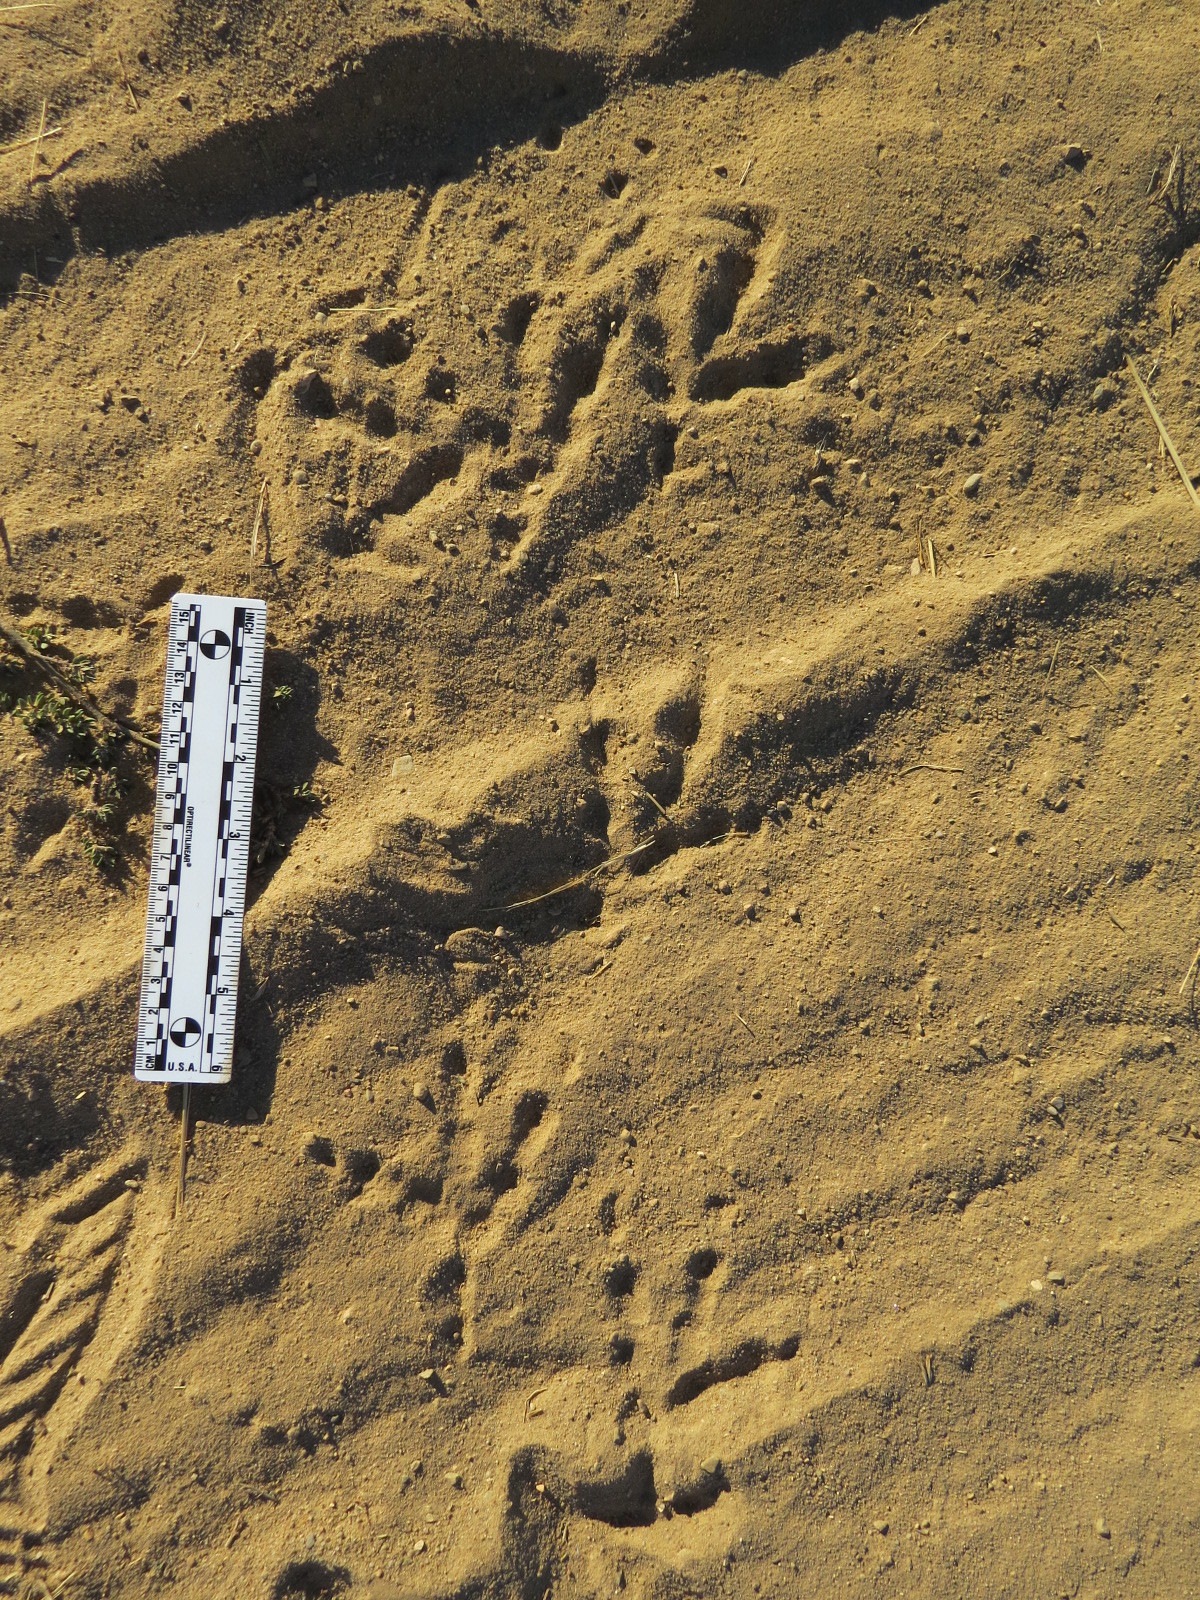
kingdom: Animalia
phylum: Chordata
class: Aves
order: Strigiformes
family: Strigidae
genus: Bubo
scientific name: Bubo virginianus
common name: Great horned owl
